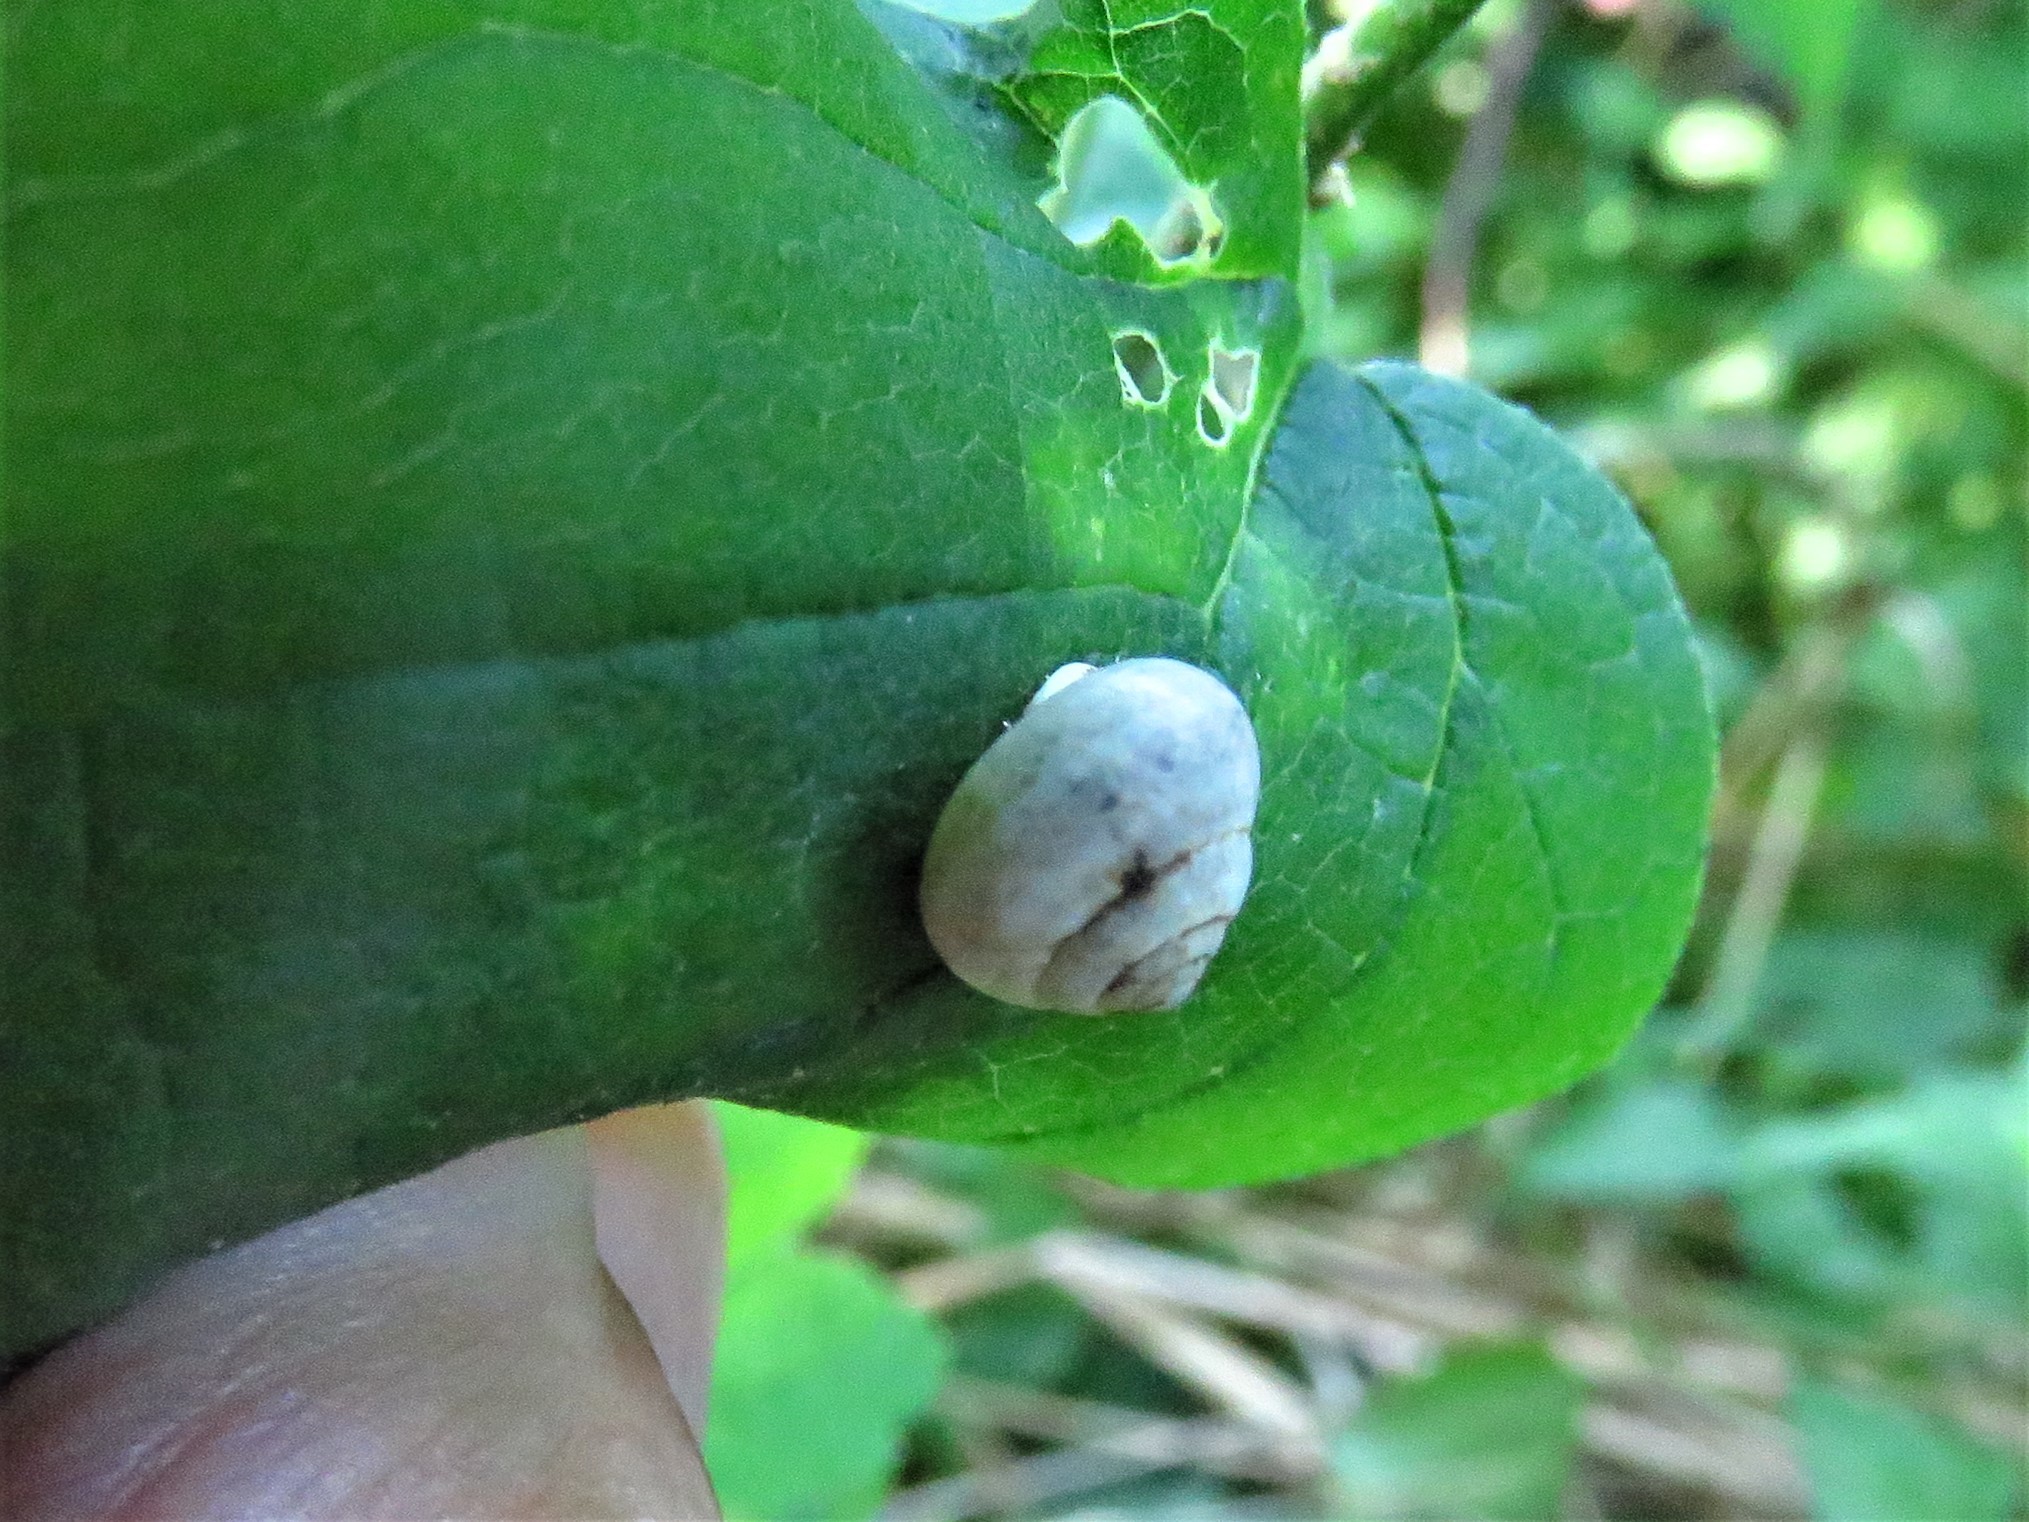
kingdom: Animalia
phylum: Mollusca
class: Gastropoda
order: Cycloneritida
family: Helicinidae
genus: Helicina
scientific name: Helicina orbiculata
